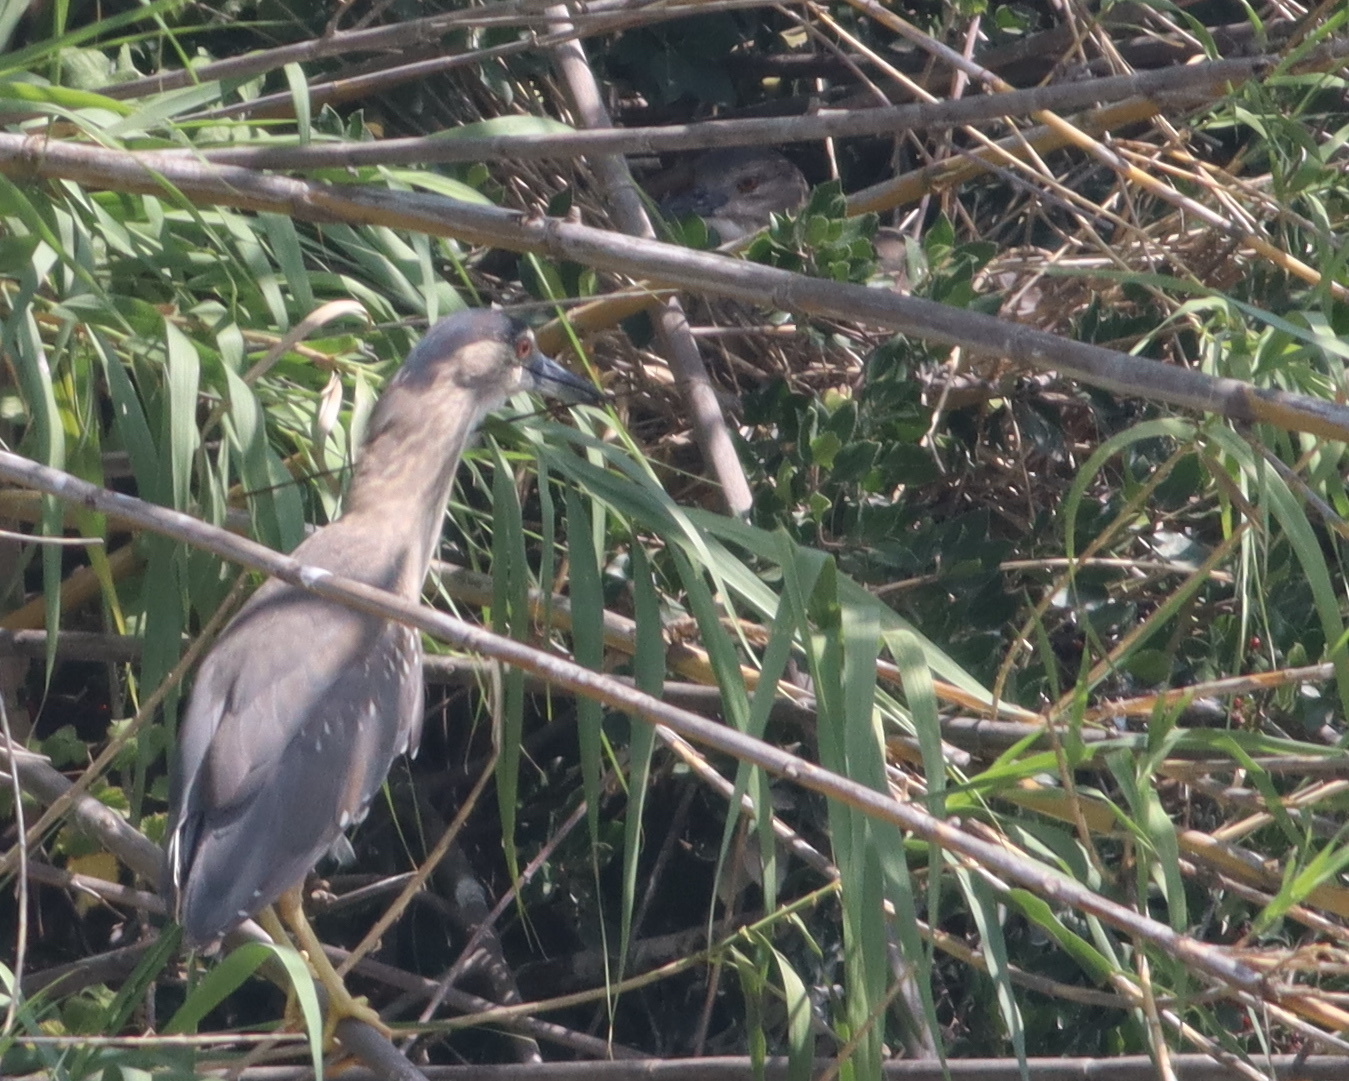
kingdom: Animalia
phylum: Chordata
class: Aves
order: Pelecaniformes
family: Ardeidae
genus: Nycticorax
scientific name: Nycticorax nycticorax
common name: Black-crowned night heron
